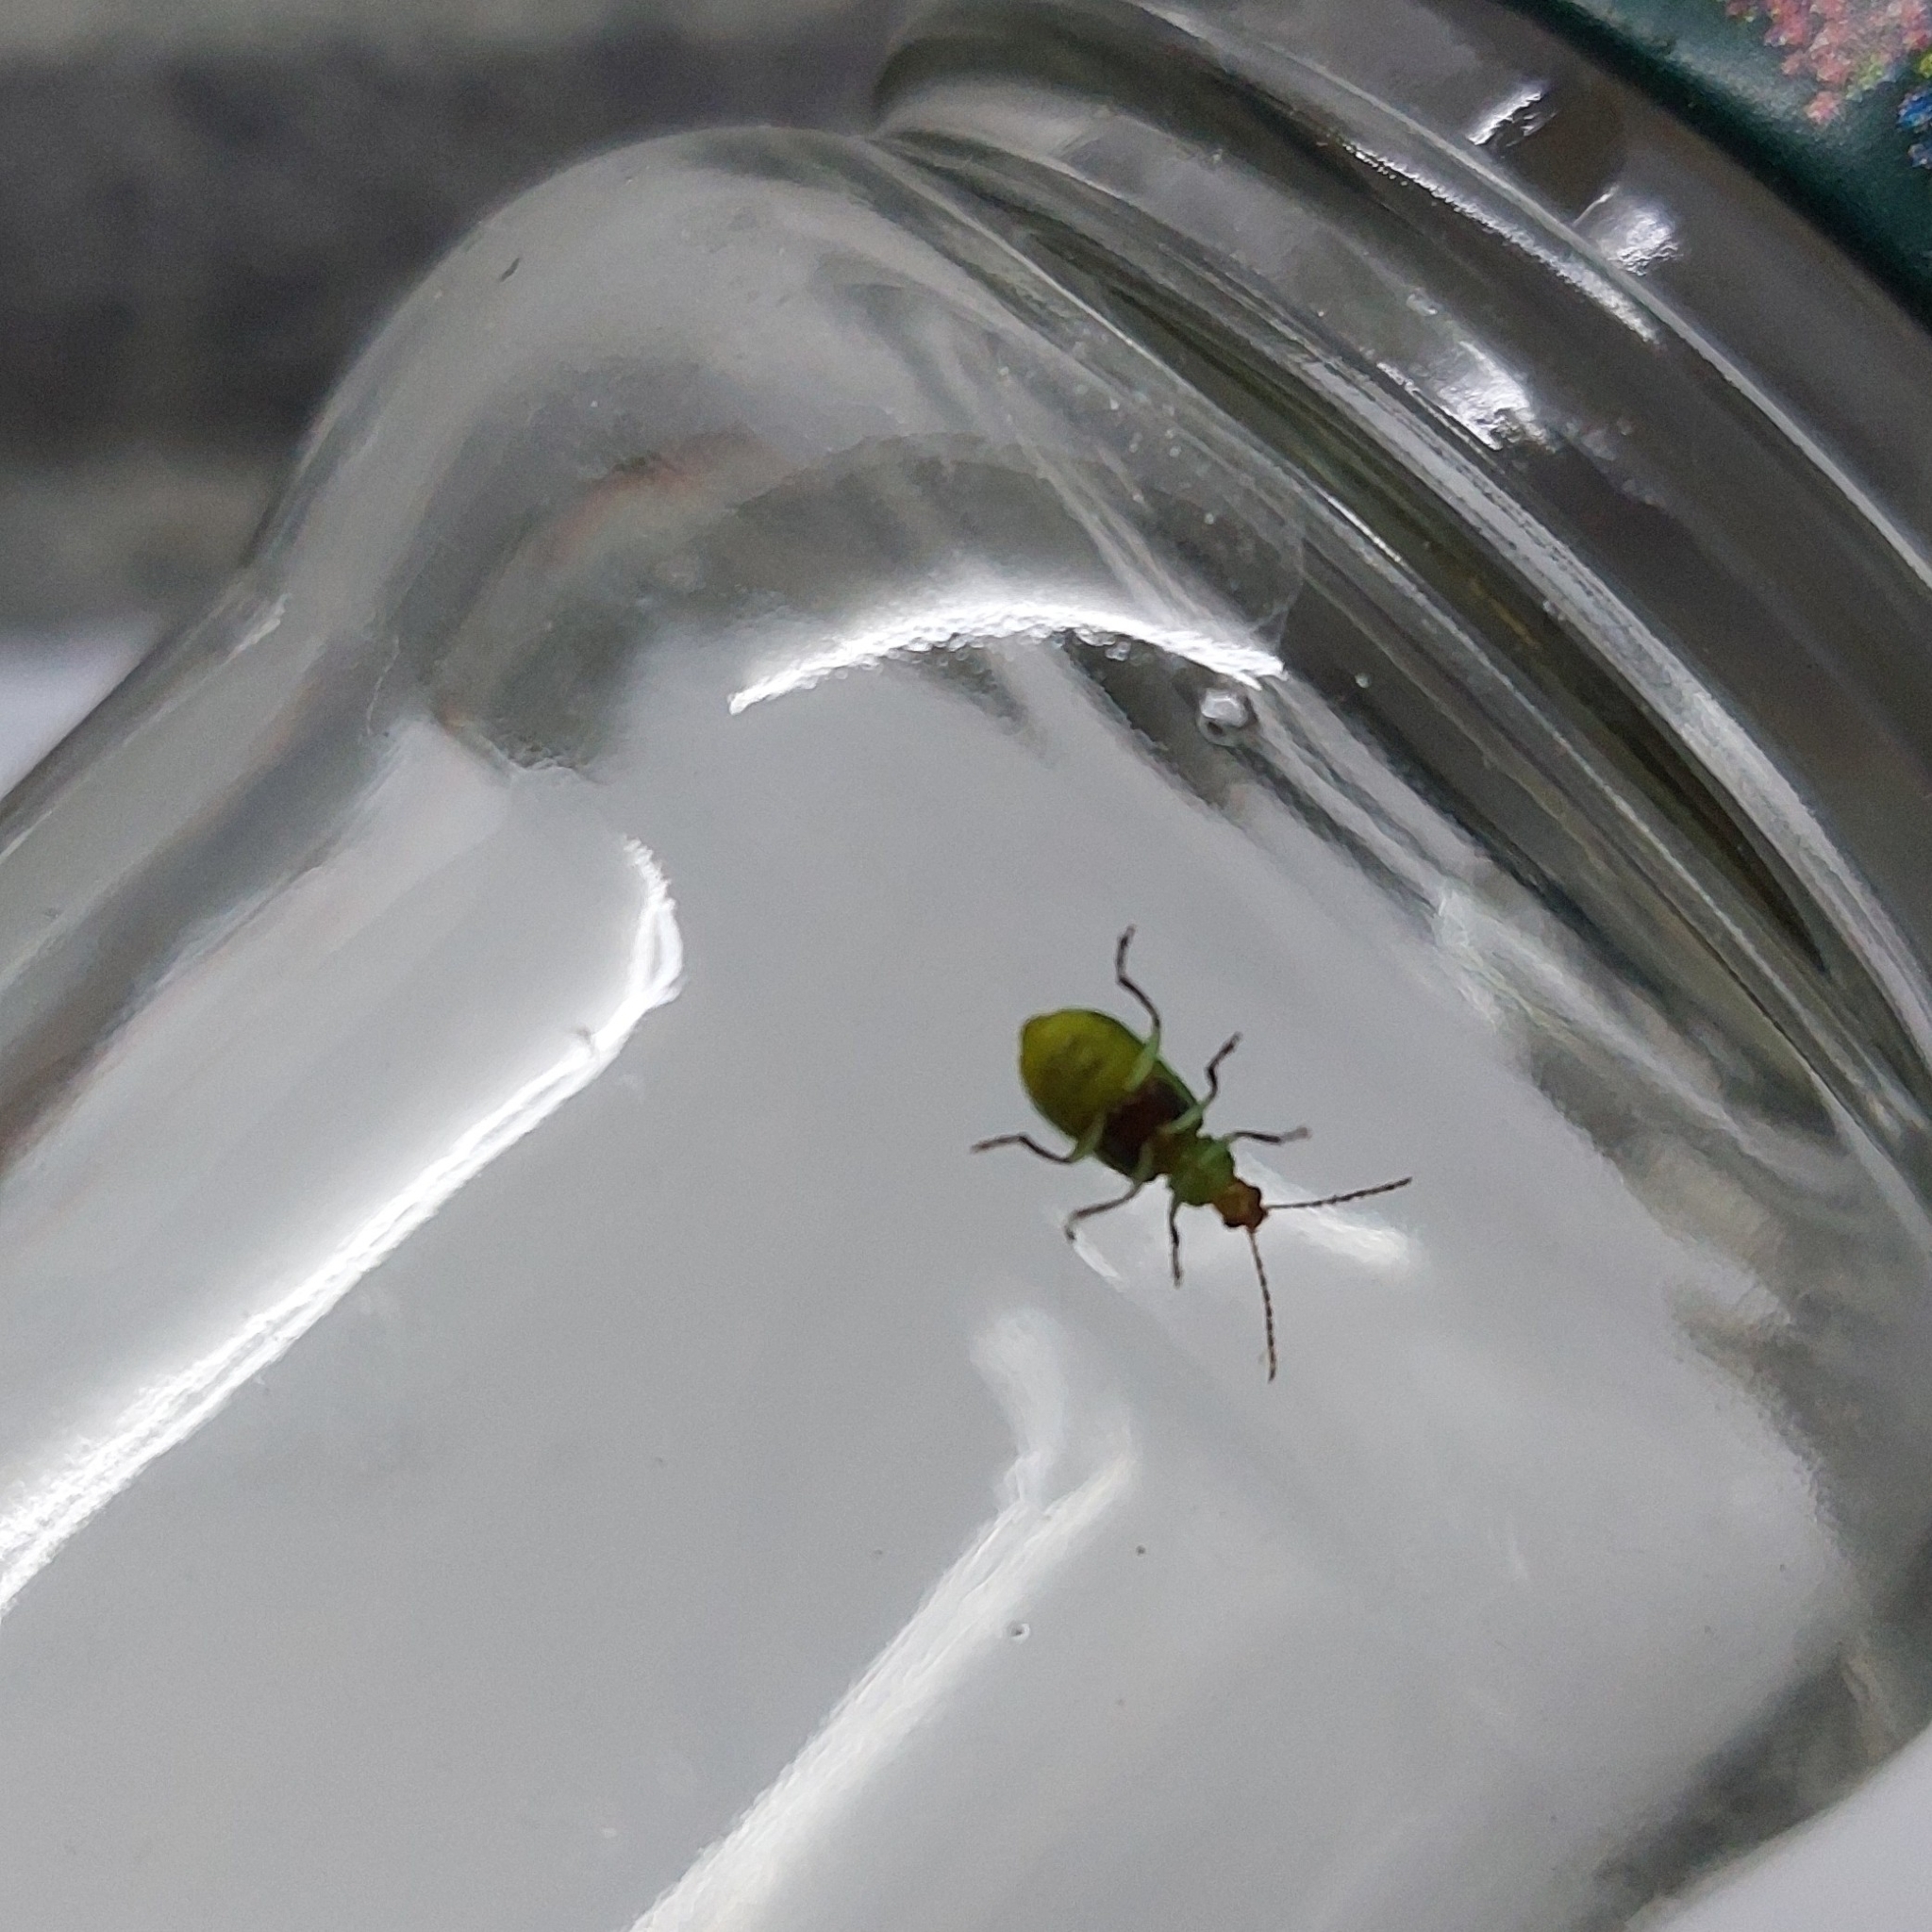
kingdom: Animalia
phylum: Arthropoda
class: Insecta
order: Coleoptera
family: Chrysomelidae
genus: Diabrotica
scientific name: Diabrotica speciosa
